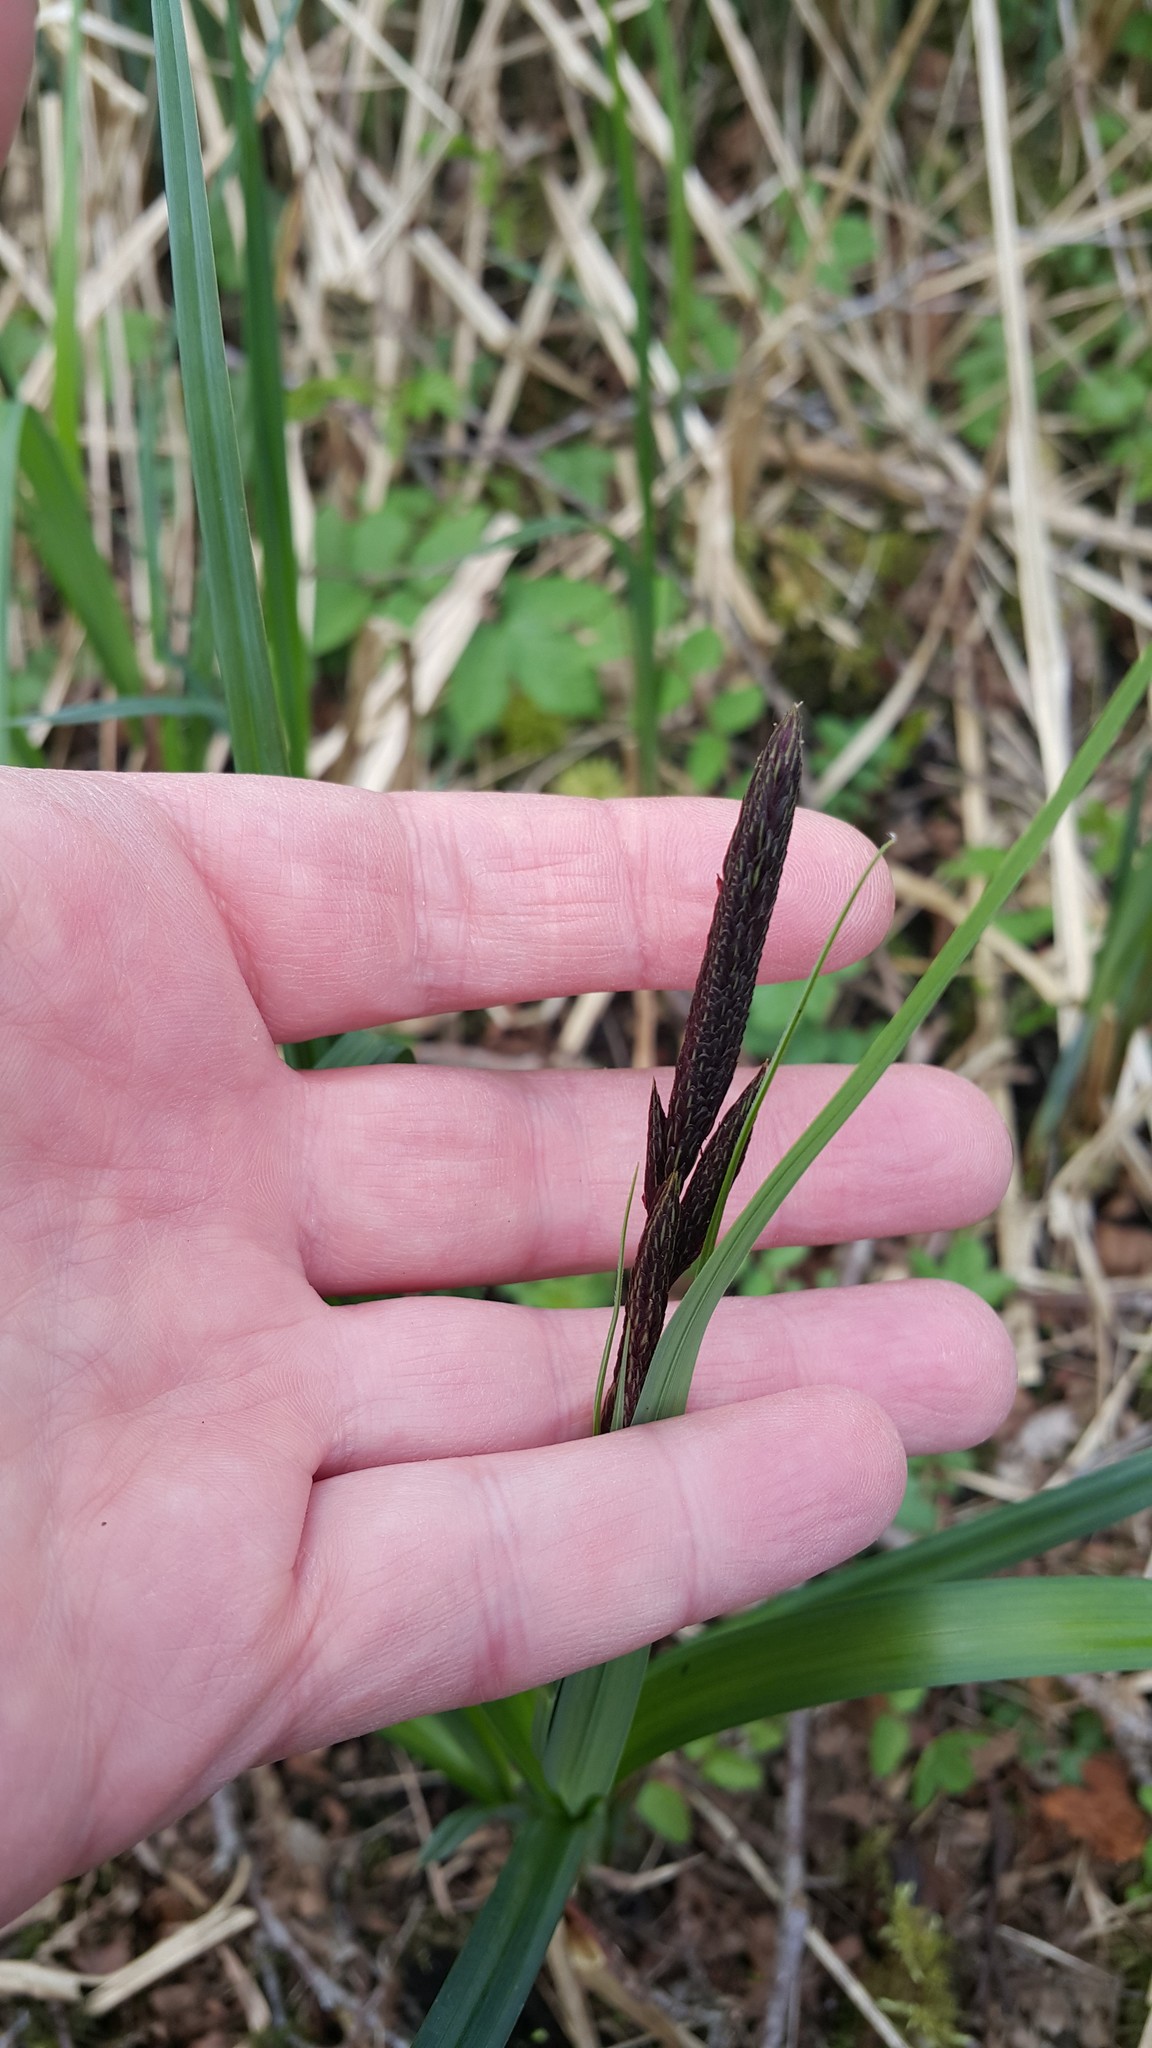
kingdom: Plantae
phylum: Tracheophyta
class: Liliopsida
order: Poales
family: Cyperaceae
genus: Carex
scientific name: Carex nigra
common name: Common sedge
